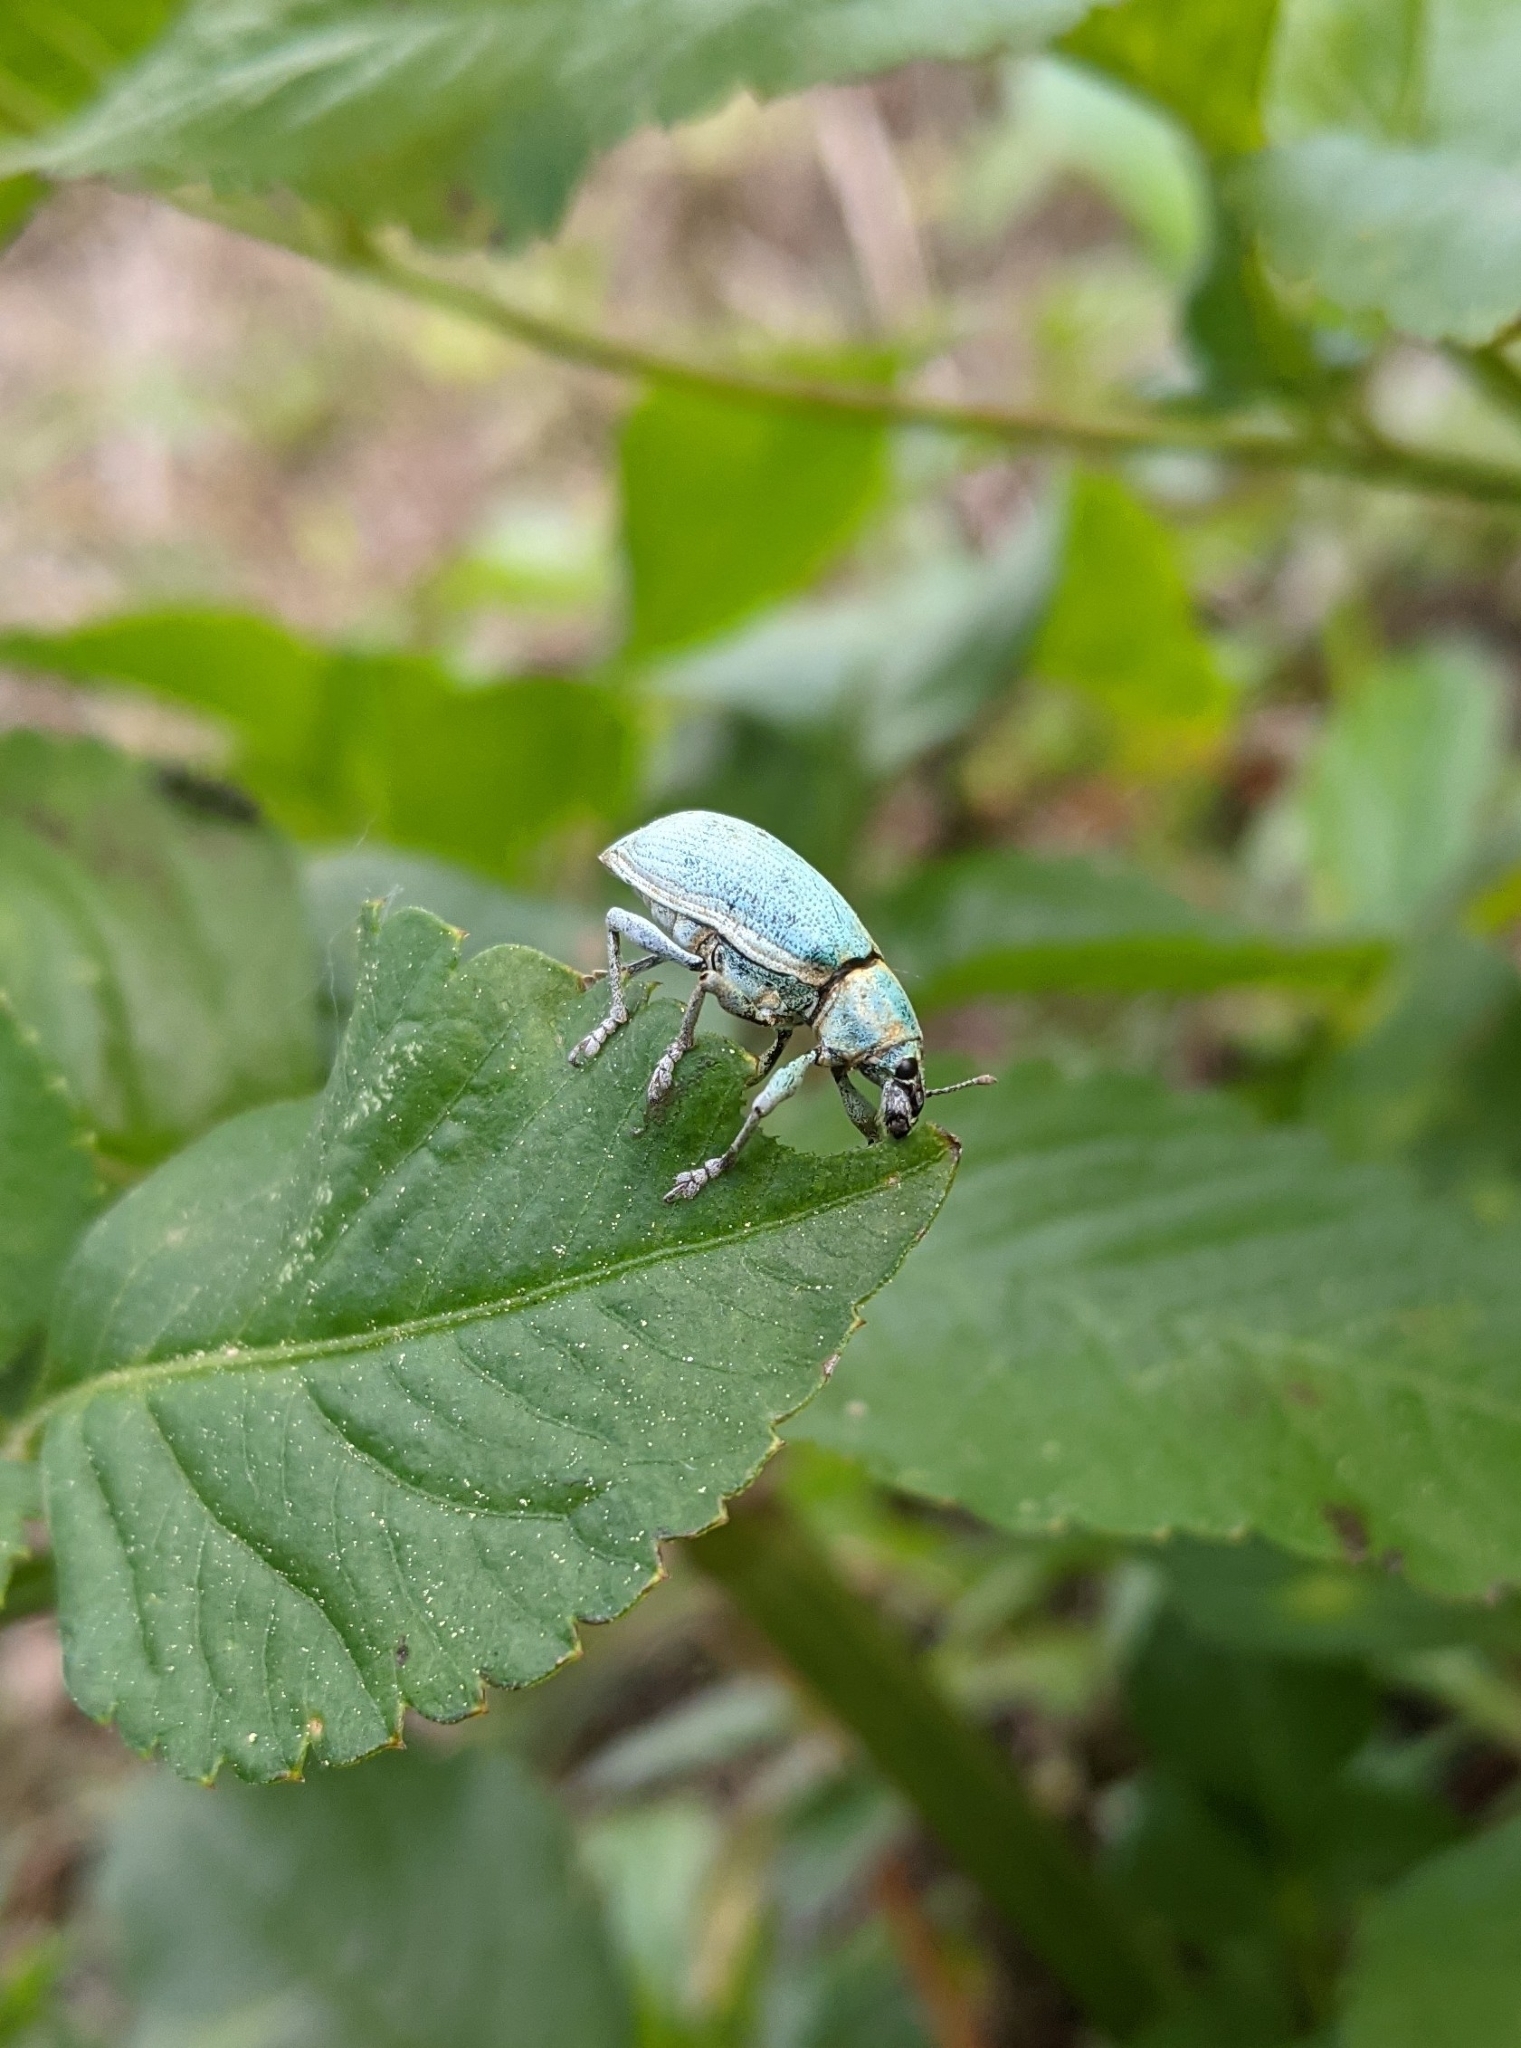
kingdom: Animalia
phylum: Arthropoda
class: Insecta
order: Coleoptera
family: Curculionidae
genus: Pachnaeus
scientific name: Pachnaeus litus
